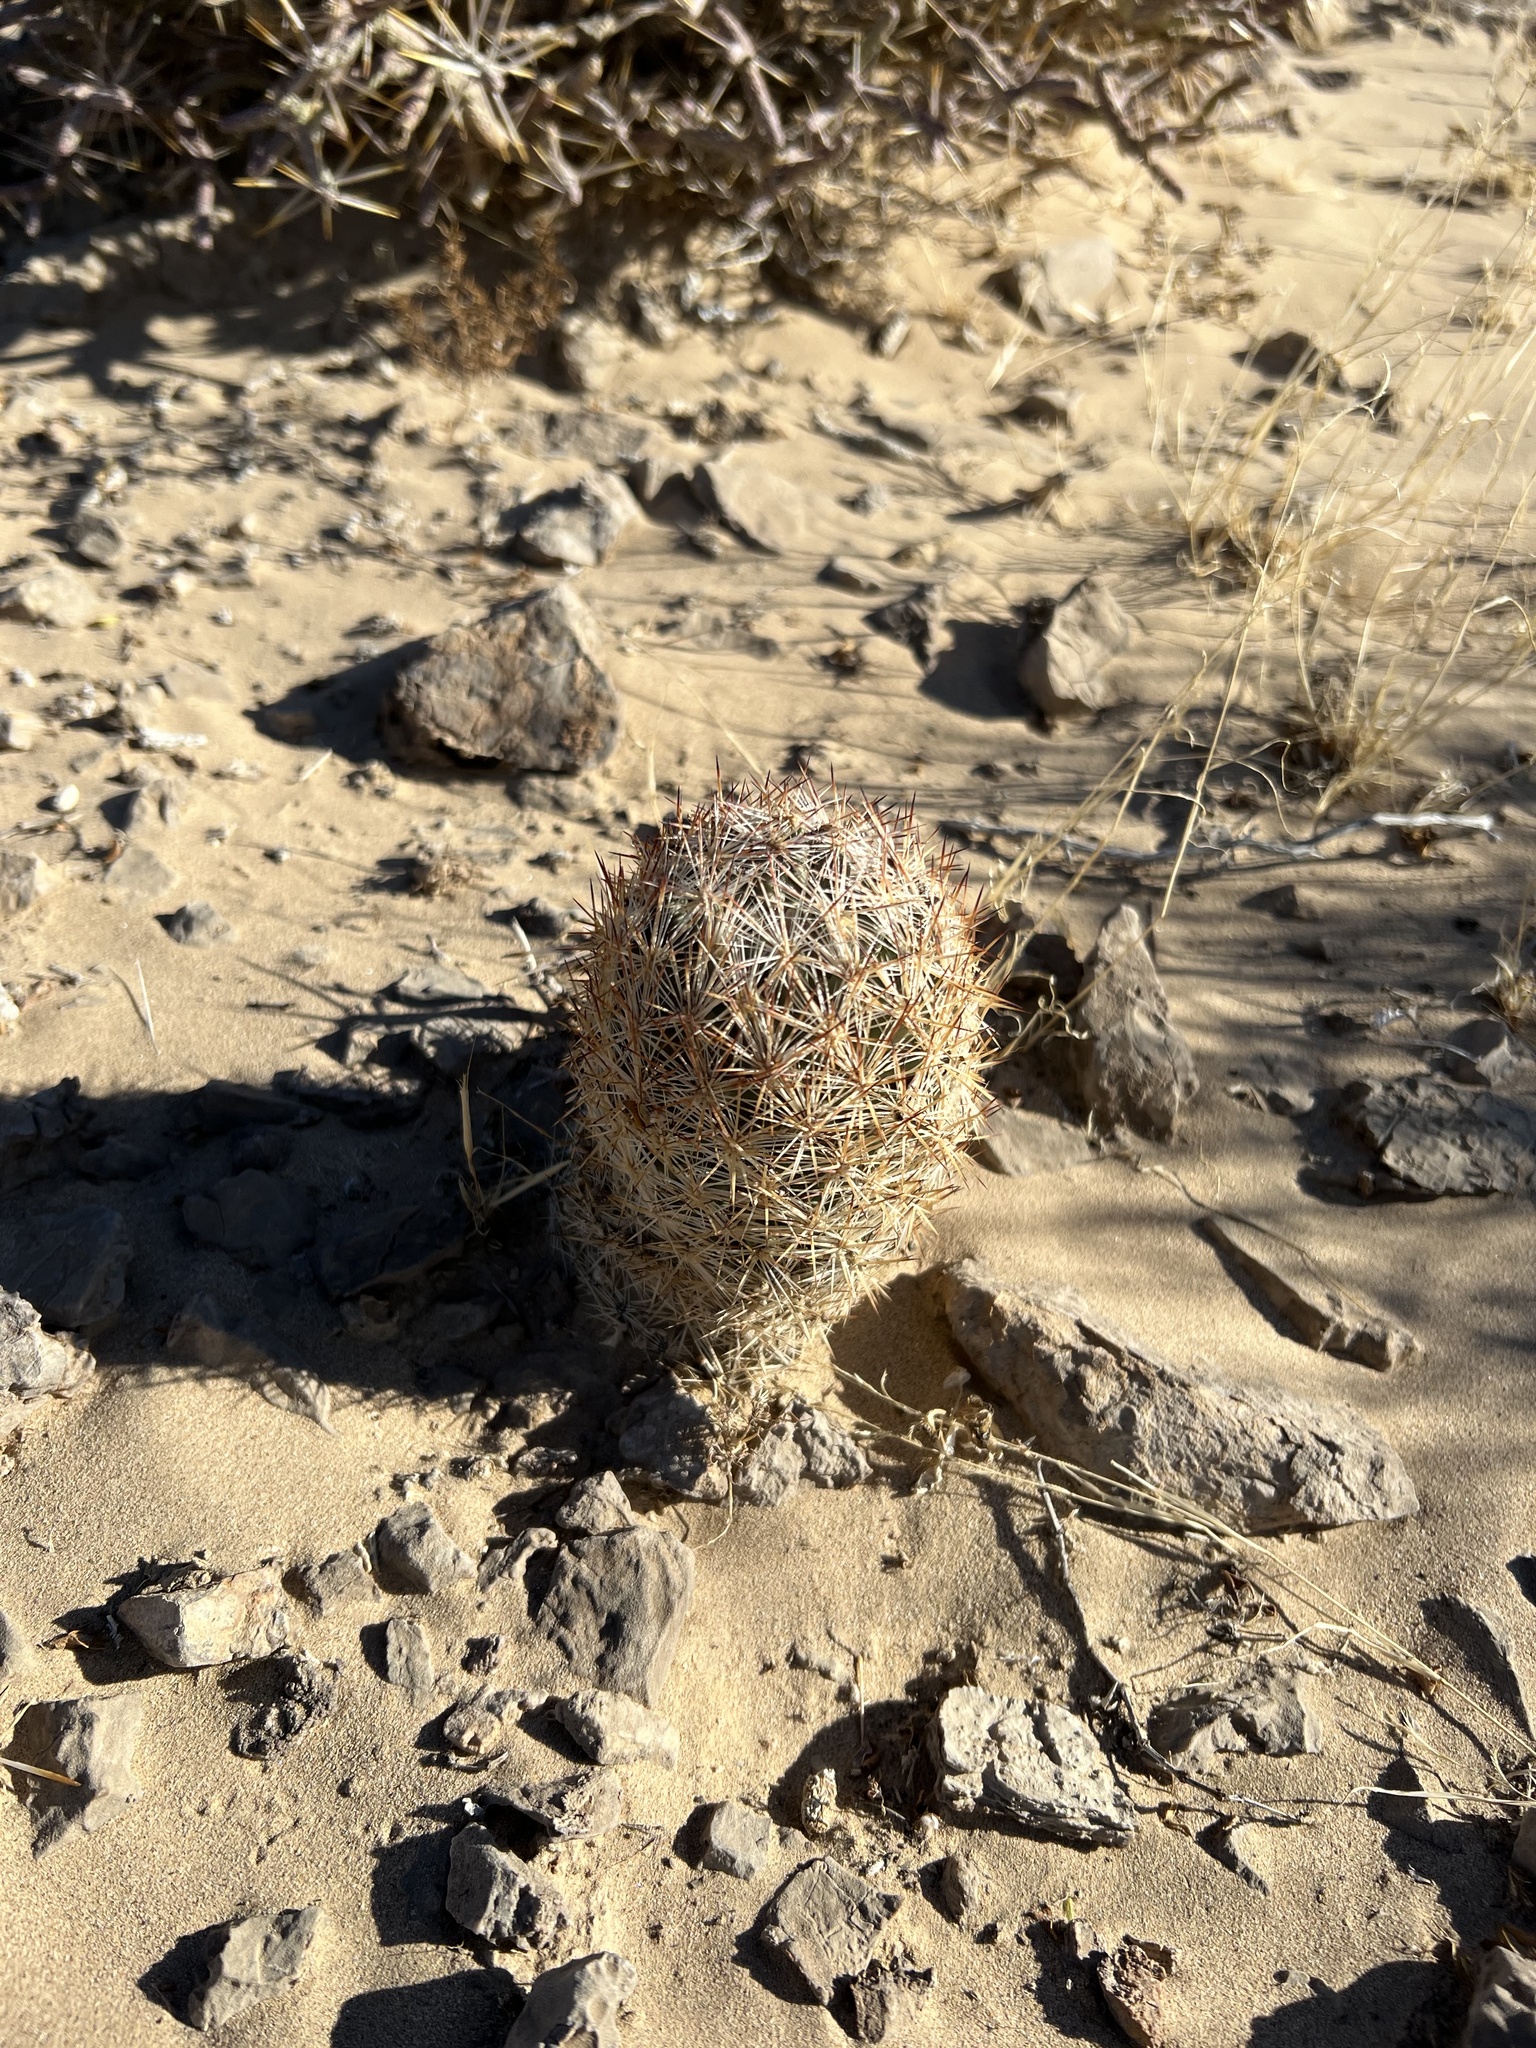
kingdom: Plantae
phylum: Tracheophyta
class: Magnoliopsida
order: Caryophyllales
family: Cactaceae
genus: Pelecyphora
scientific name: Pelecyphora dasyacantha
